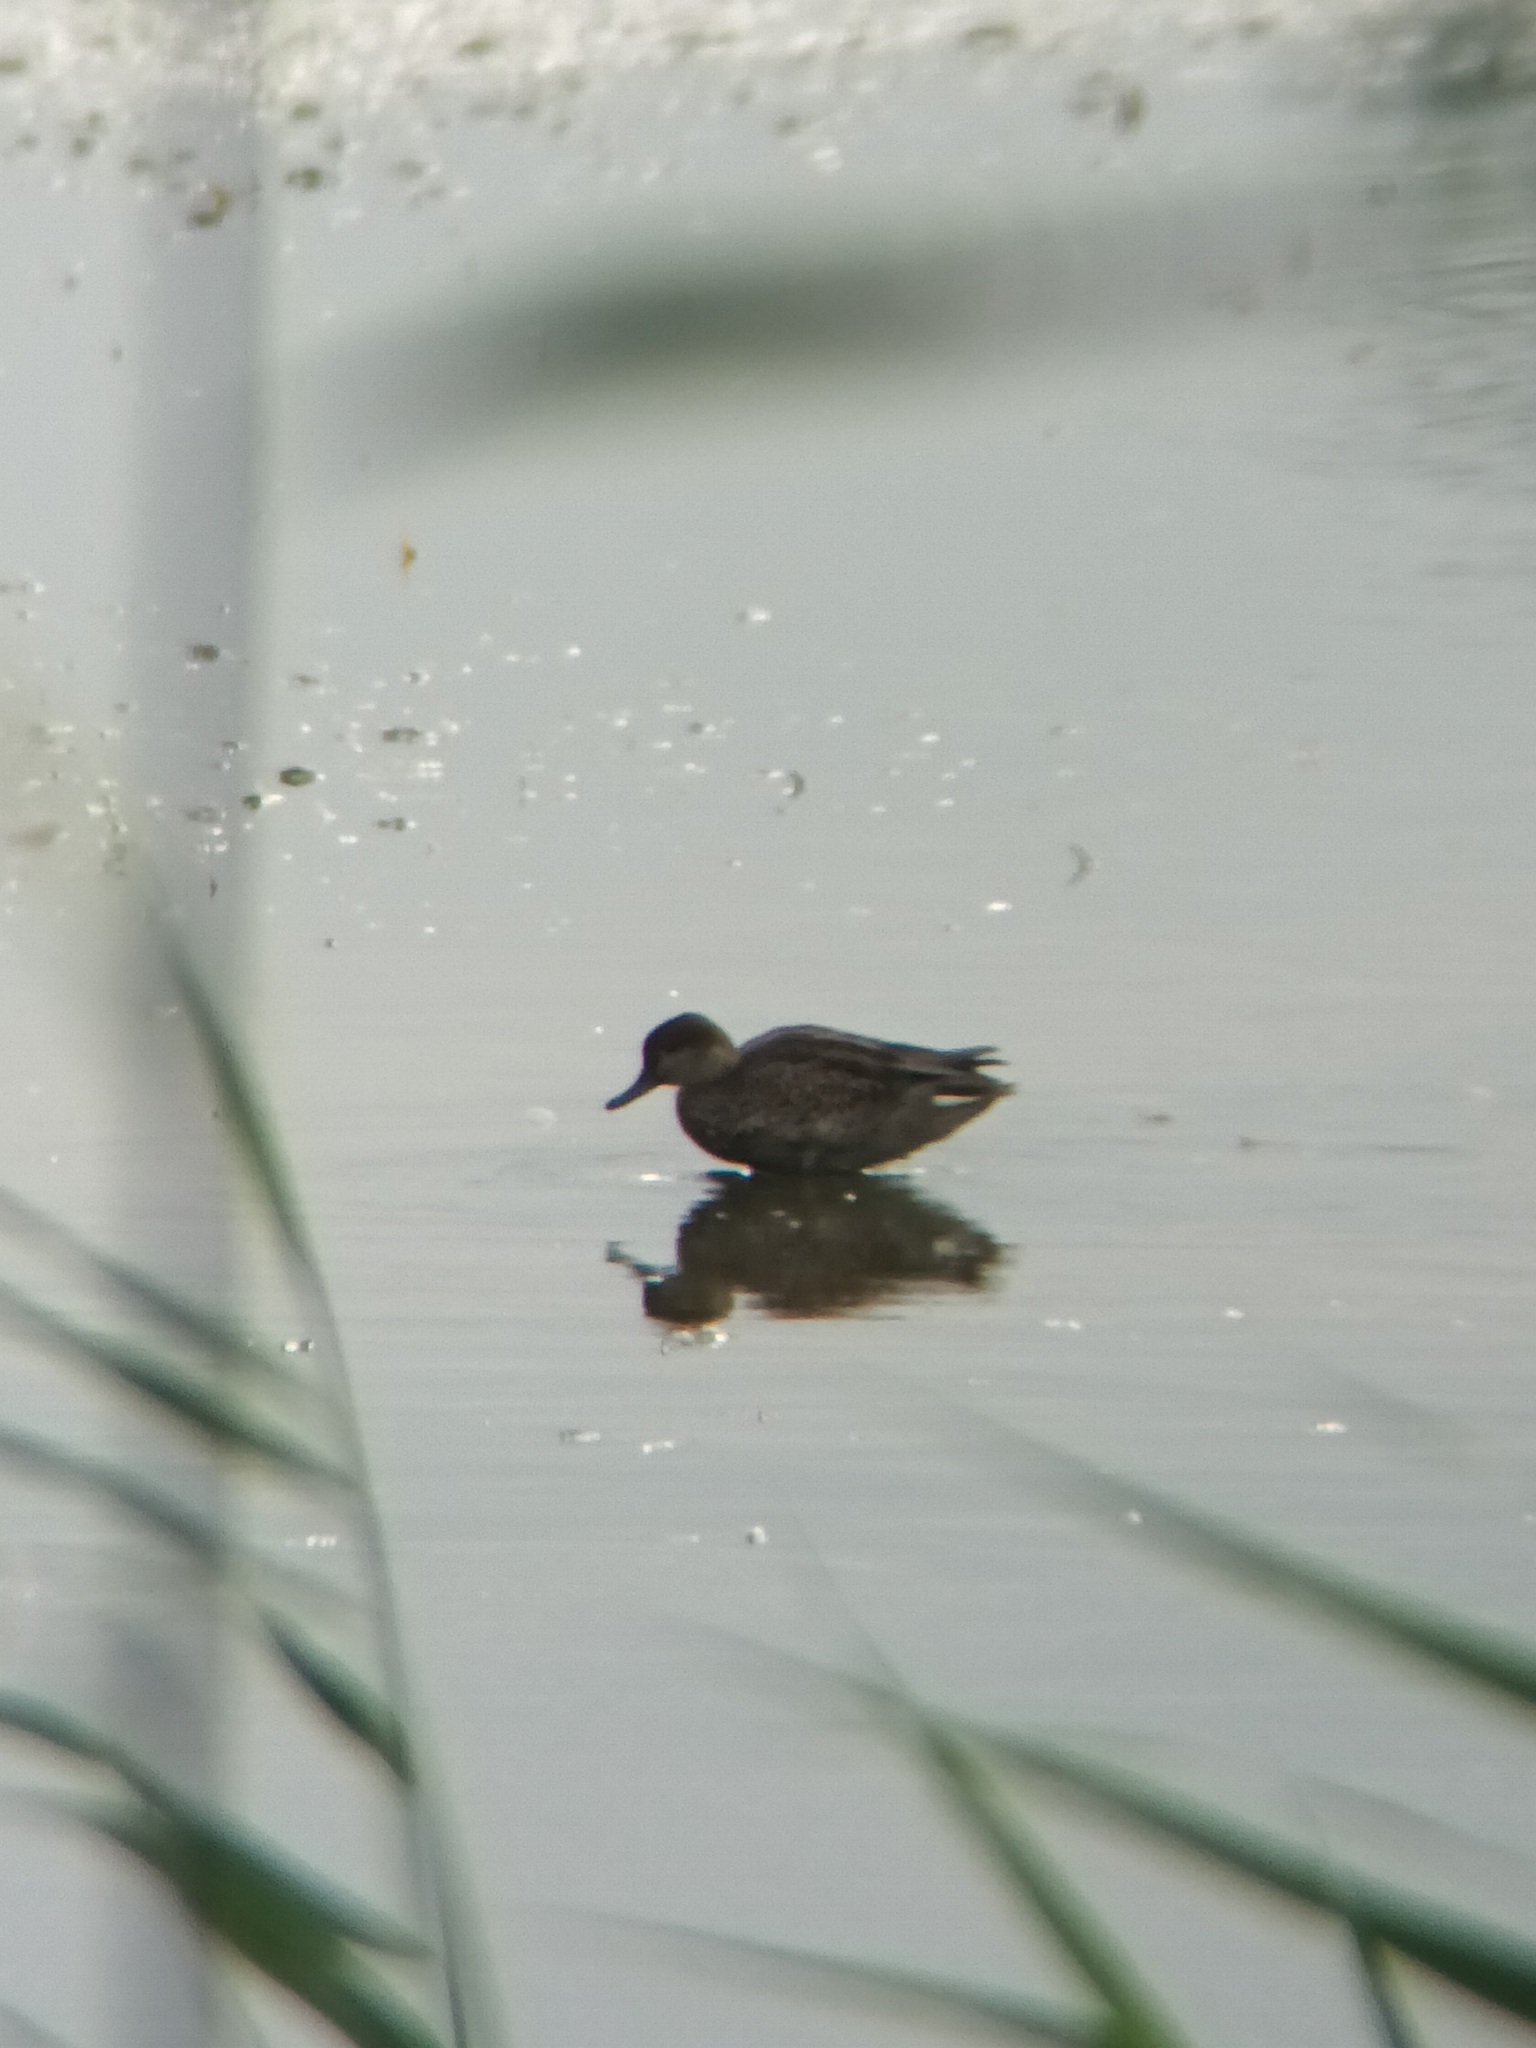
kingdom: Animalia
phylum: Chordata
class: Aves
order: Anseriformes
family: Anatidae
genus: Anas
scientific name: Anas crecca
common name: Eurasian teal
